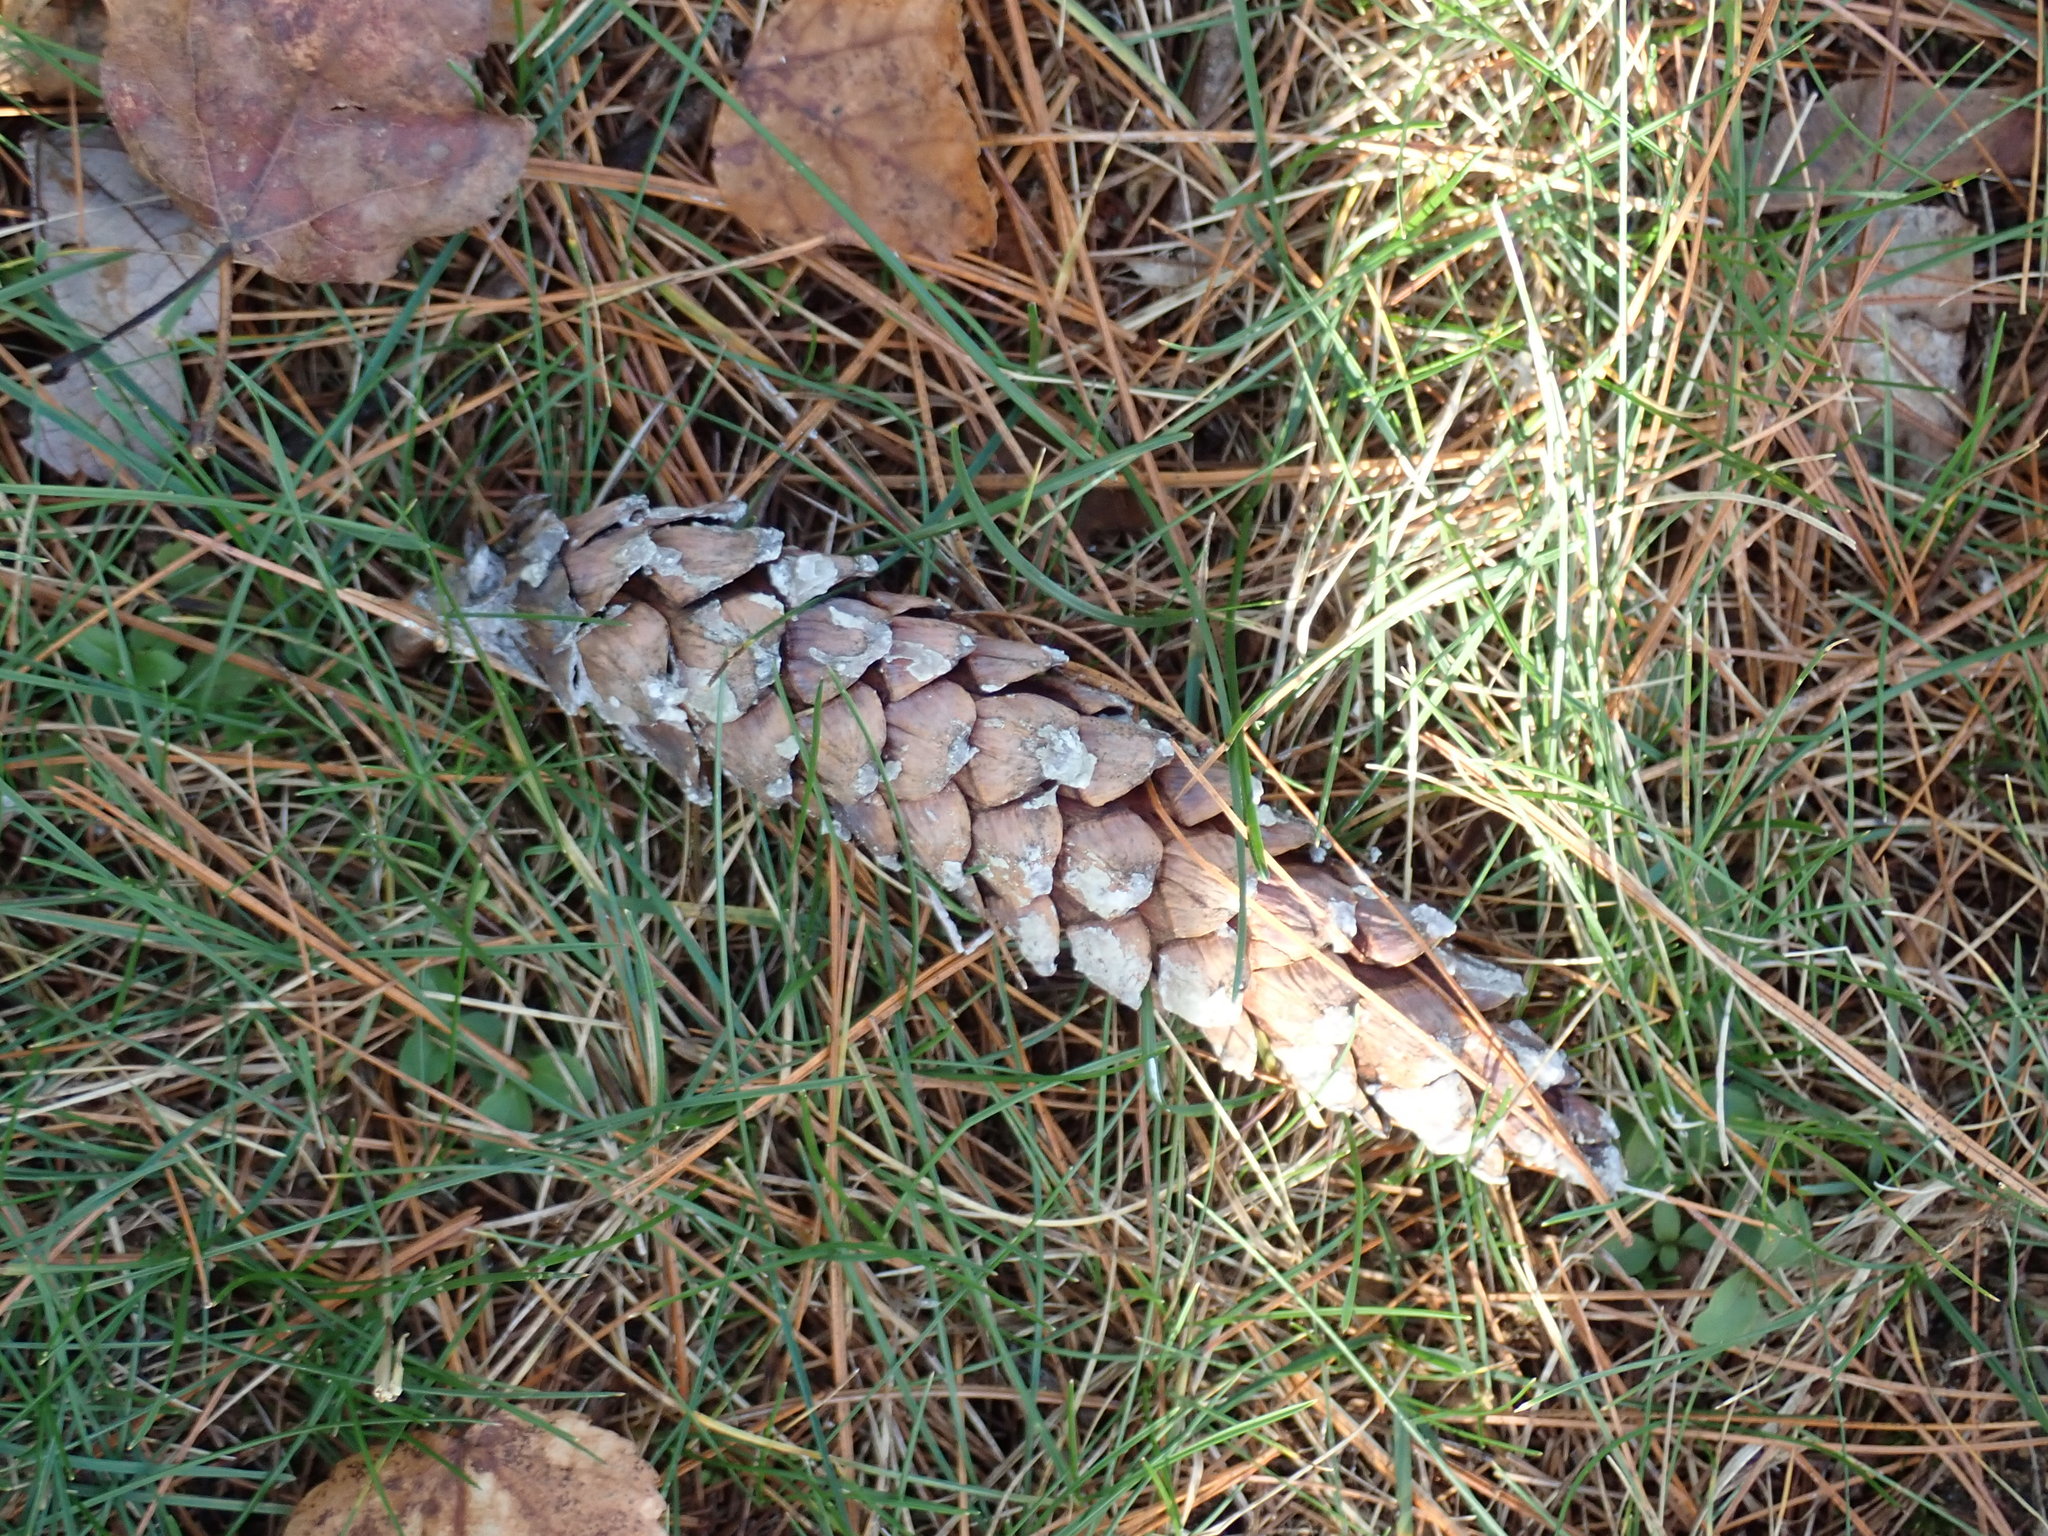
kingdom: Plantae
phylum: Tracheophyta
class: Pinopsida
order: Pinales
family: Pinaceae
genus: Pinus
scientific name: Pinus strobus
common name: Weymouth pine
